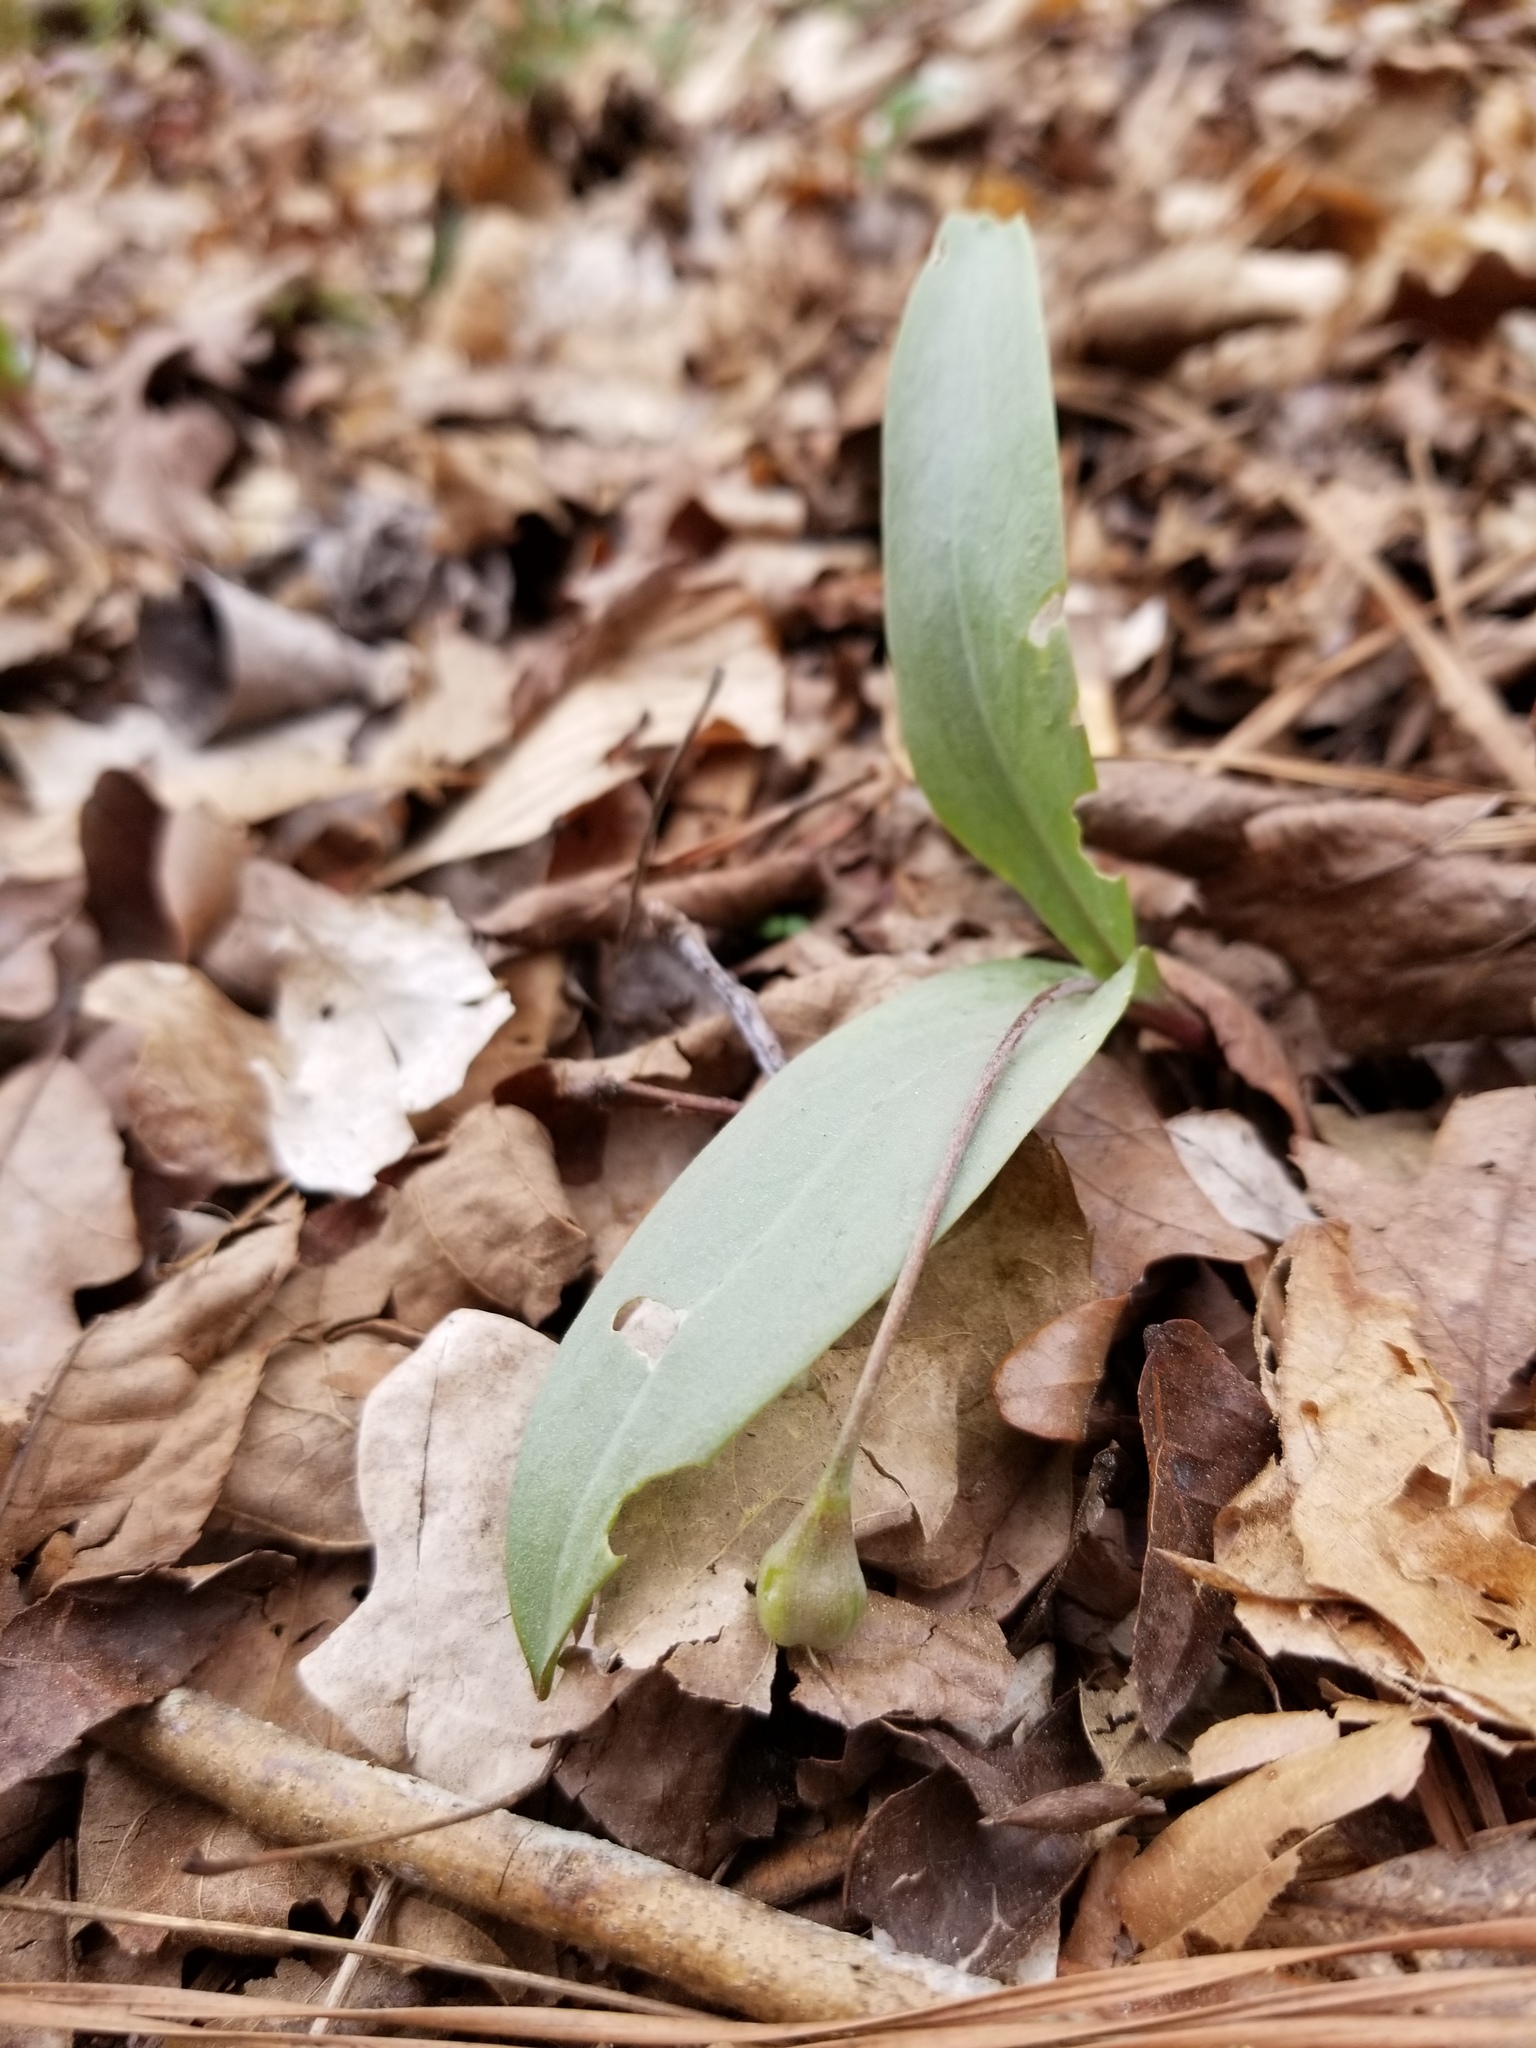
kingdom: Plantae
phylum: Tracheophyta
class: Liliopsida
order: Liliales
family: Liliaceae
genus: Erythronium
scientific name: Erythronium umbilicatum
